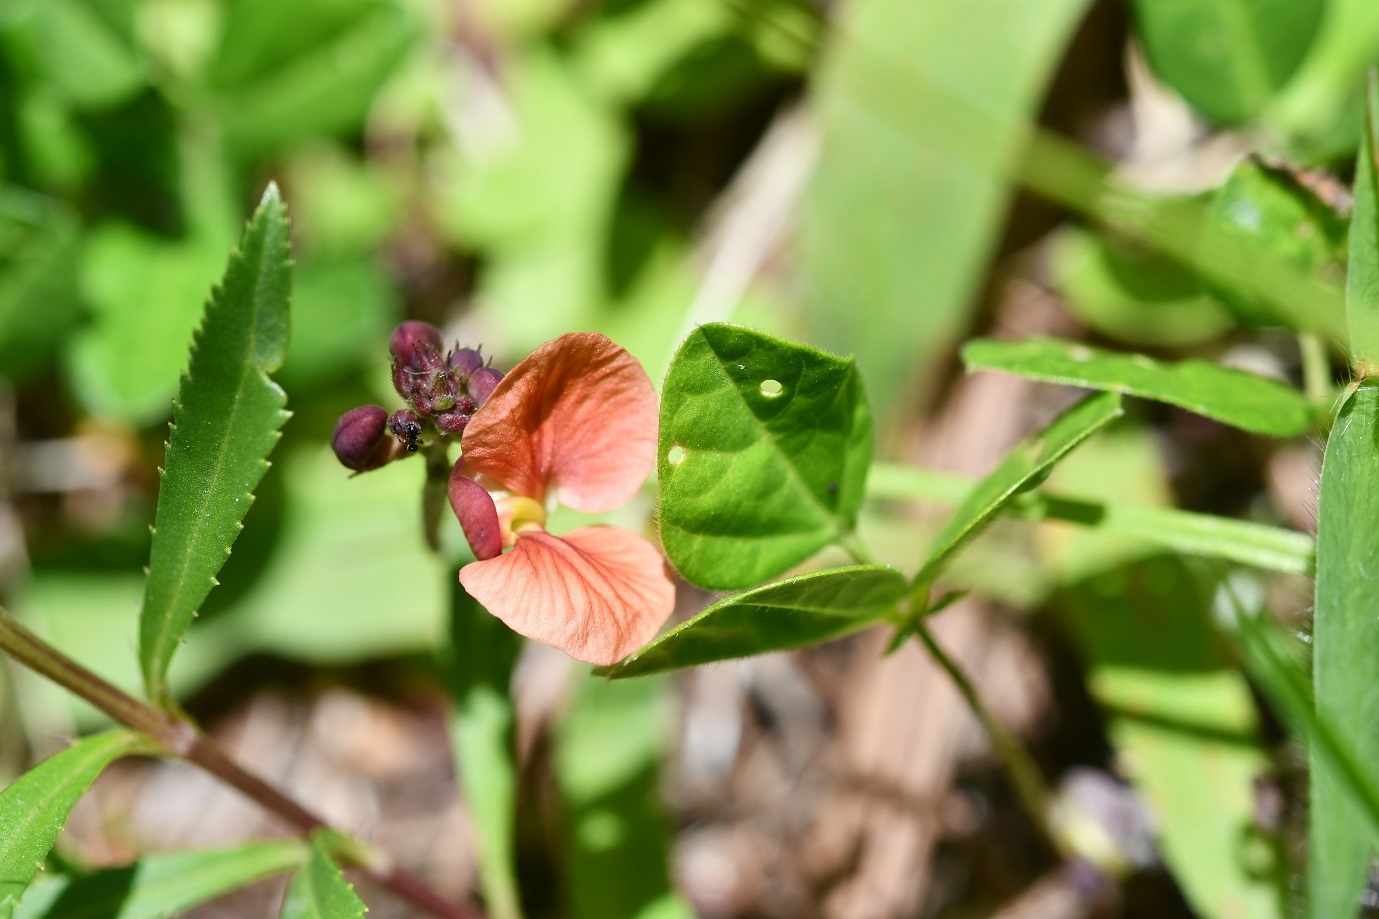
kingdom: Plantae
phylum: Tracheophyta
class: Magnoliopsida
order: Fabales
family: Fabaceae
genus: Macroptilium
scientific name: Macroptilium gibbosifolium
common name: Variableleaf bushbean
